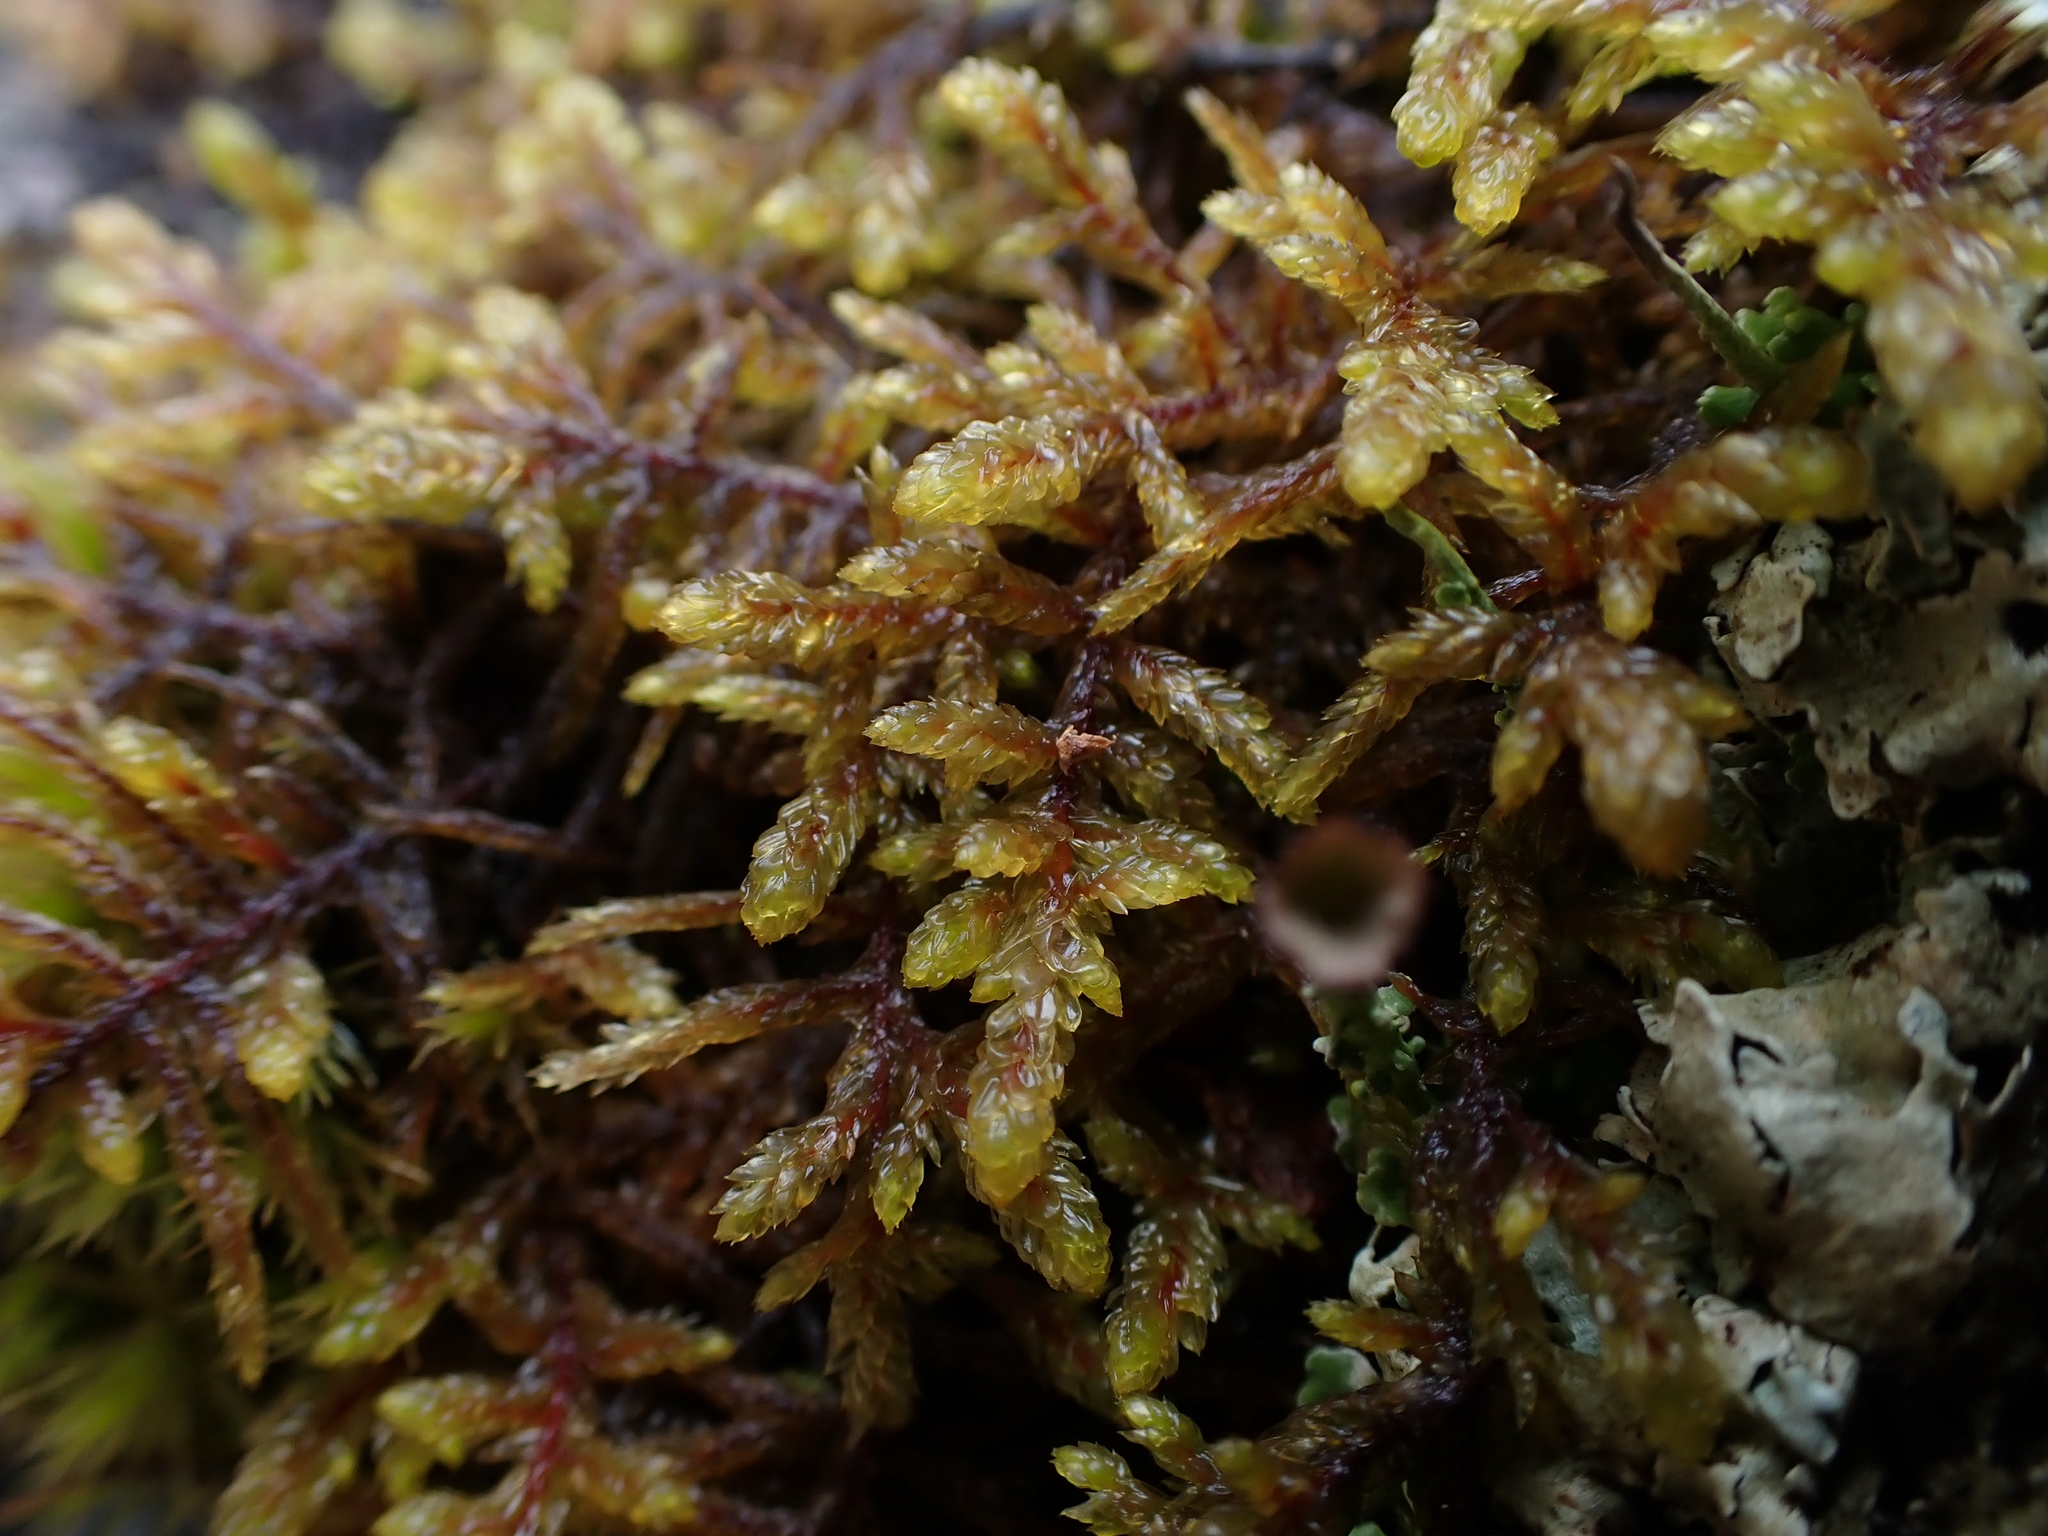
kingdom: Plantae
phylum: Bryophyta
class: Bryopsida
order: Hypnales
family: Hylocomiaceae
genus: Pleurozium
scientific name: Pleurozium schreberi
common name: Red-stemmed feather moss
